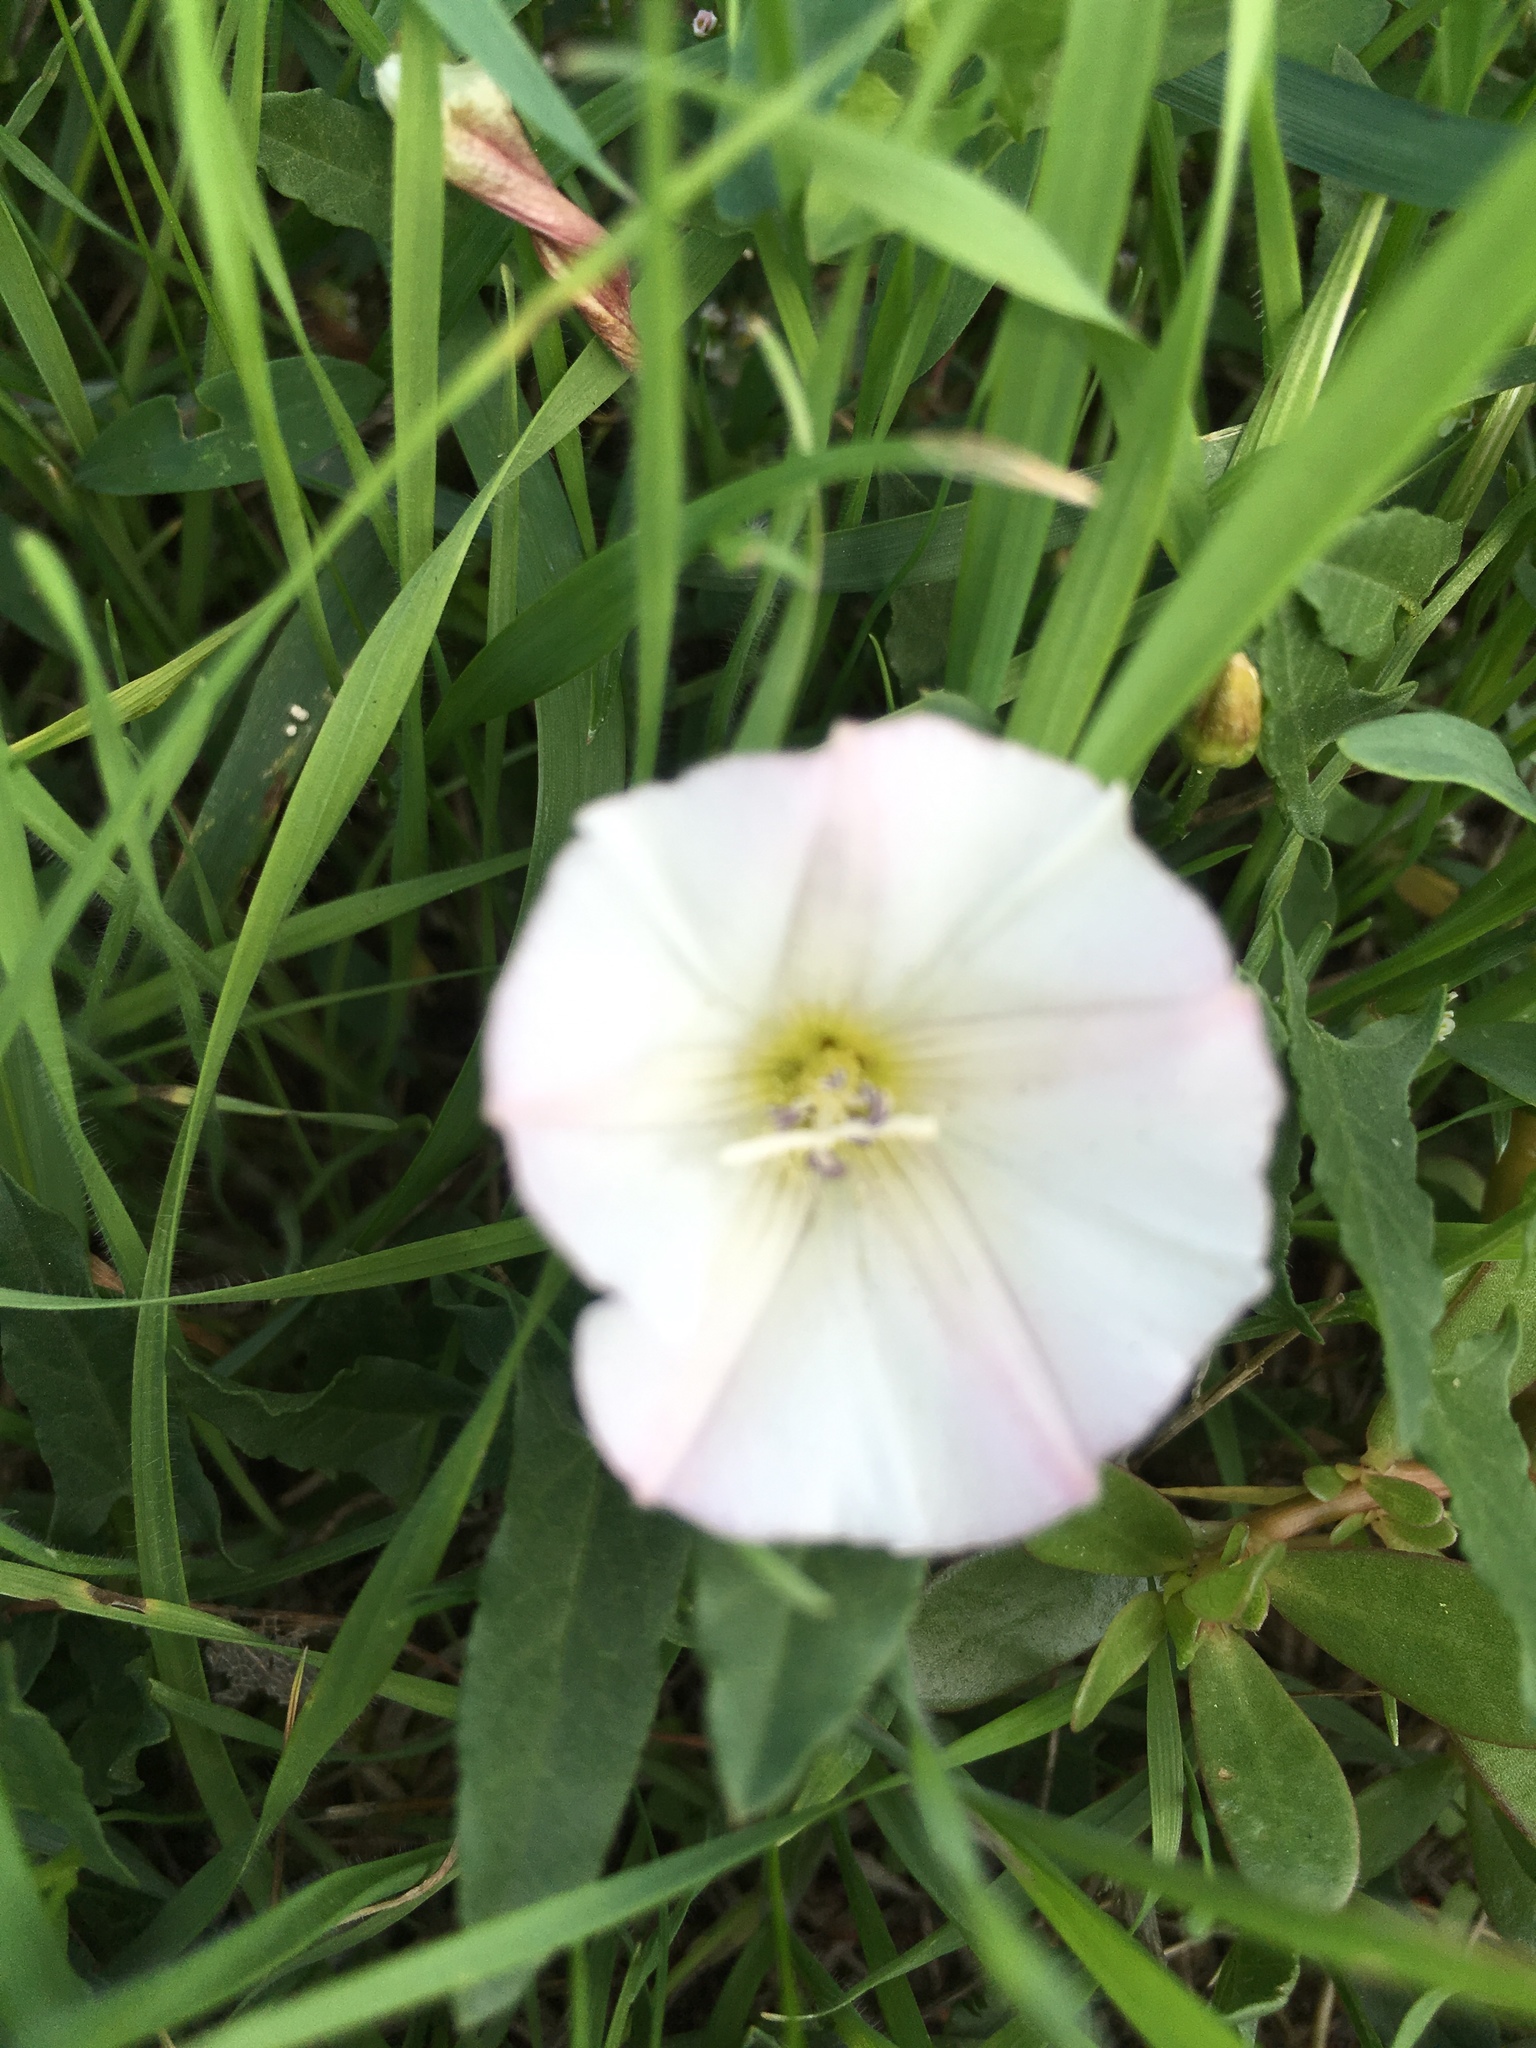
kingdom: Plantae
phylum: Tracheophyta
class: Magnoliopsida
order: Solanales
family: Convolvulaceae
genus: Convolvulus
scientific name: Convolvulus arvensis
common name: Field bindweed
